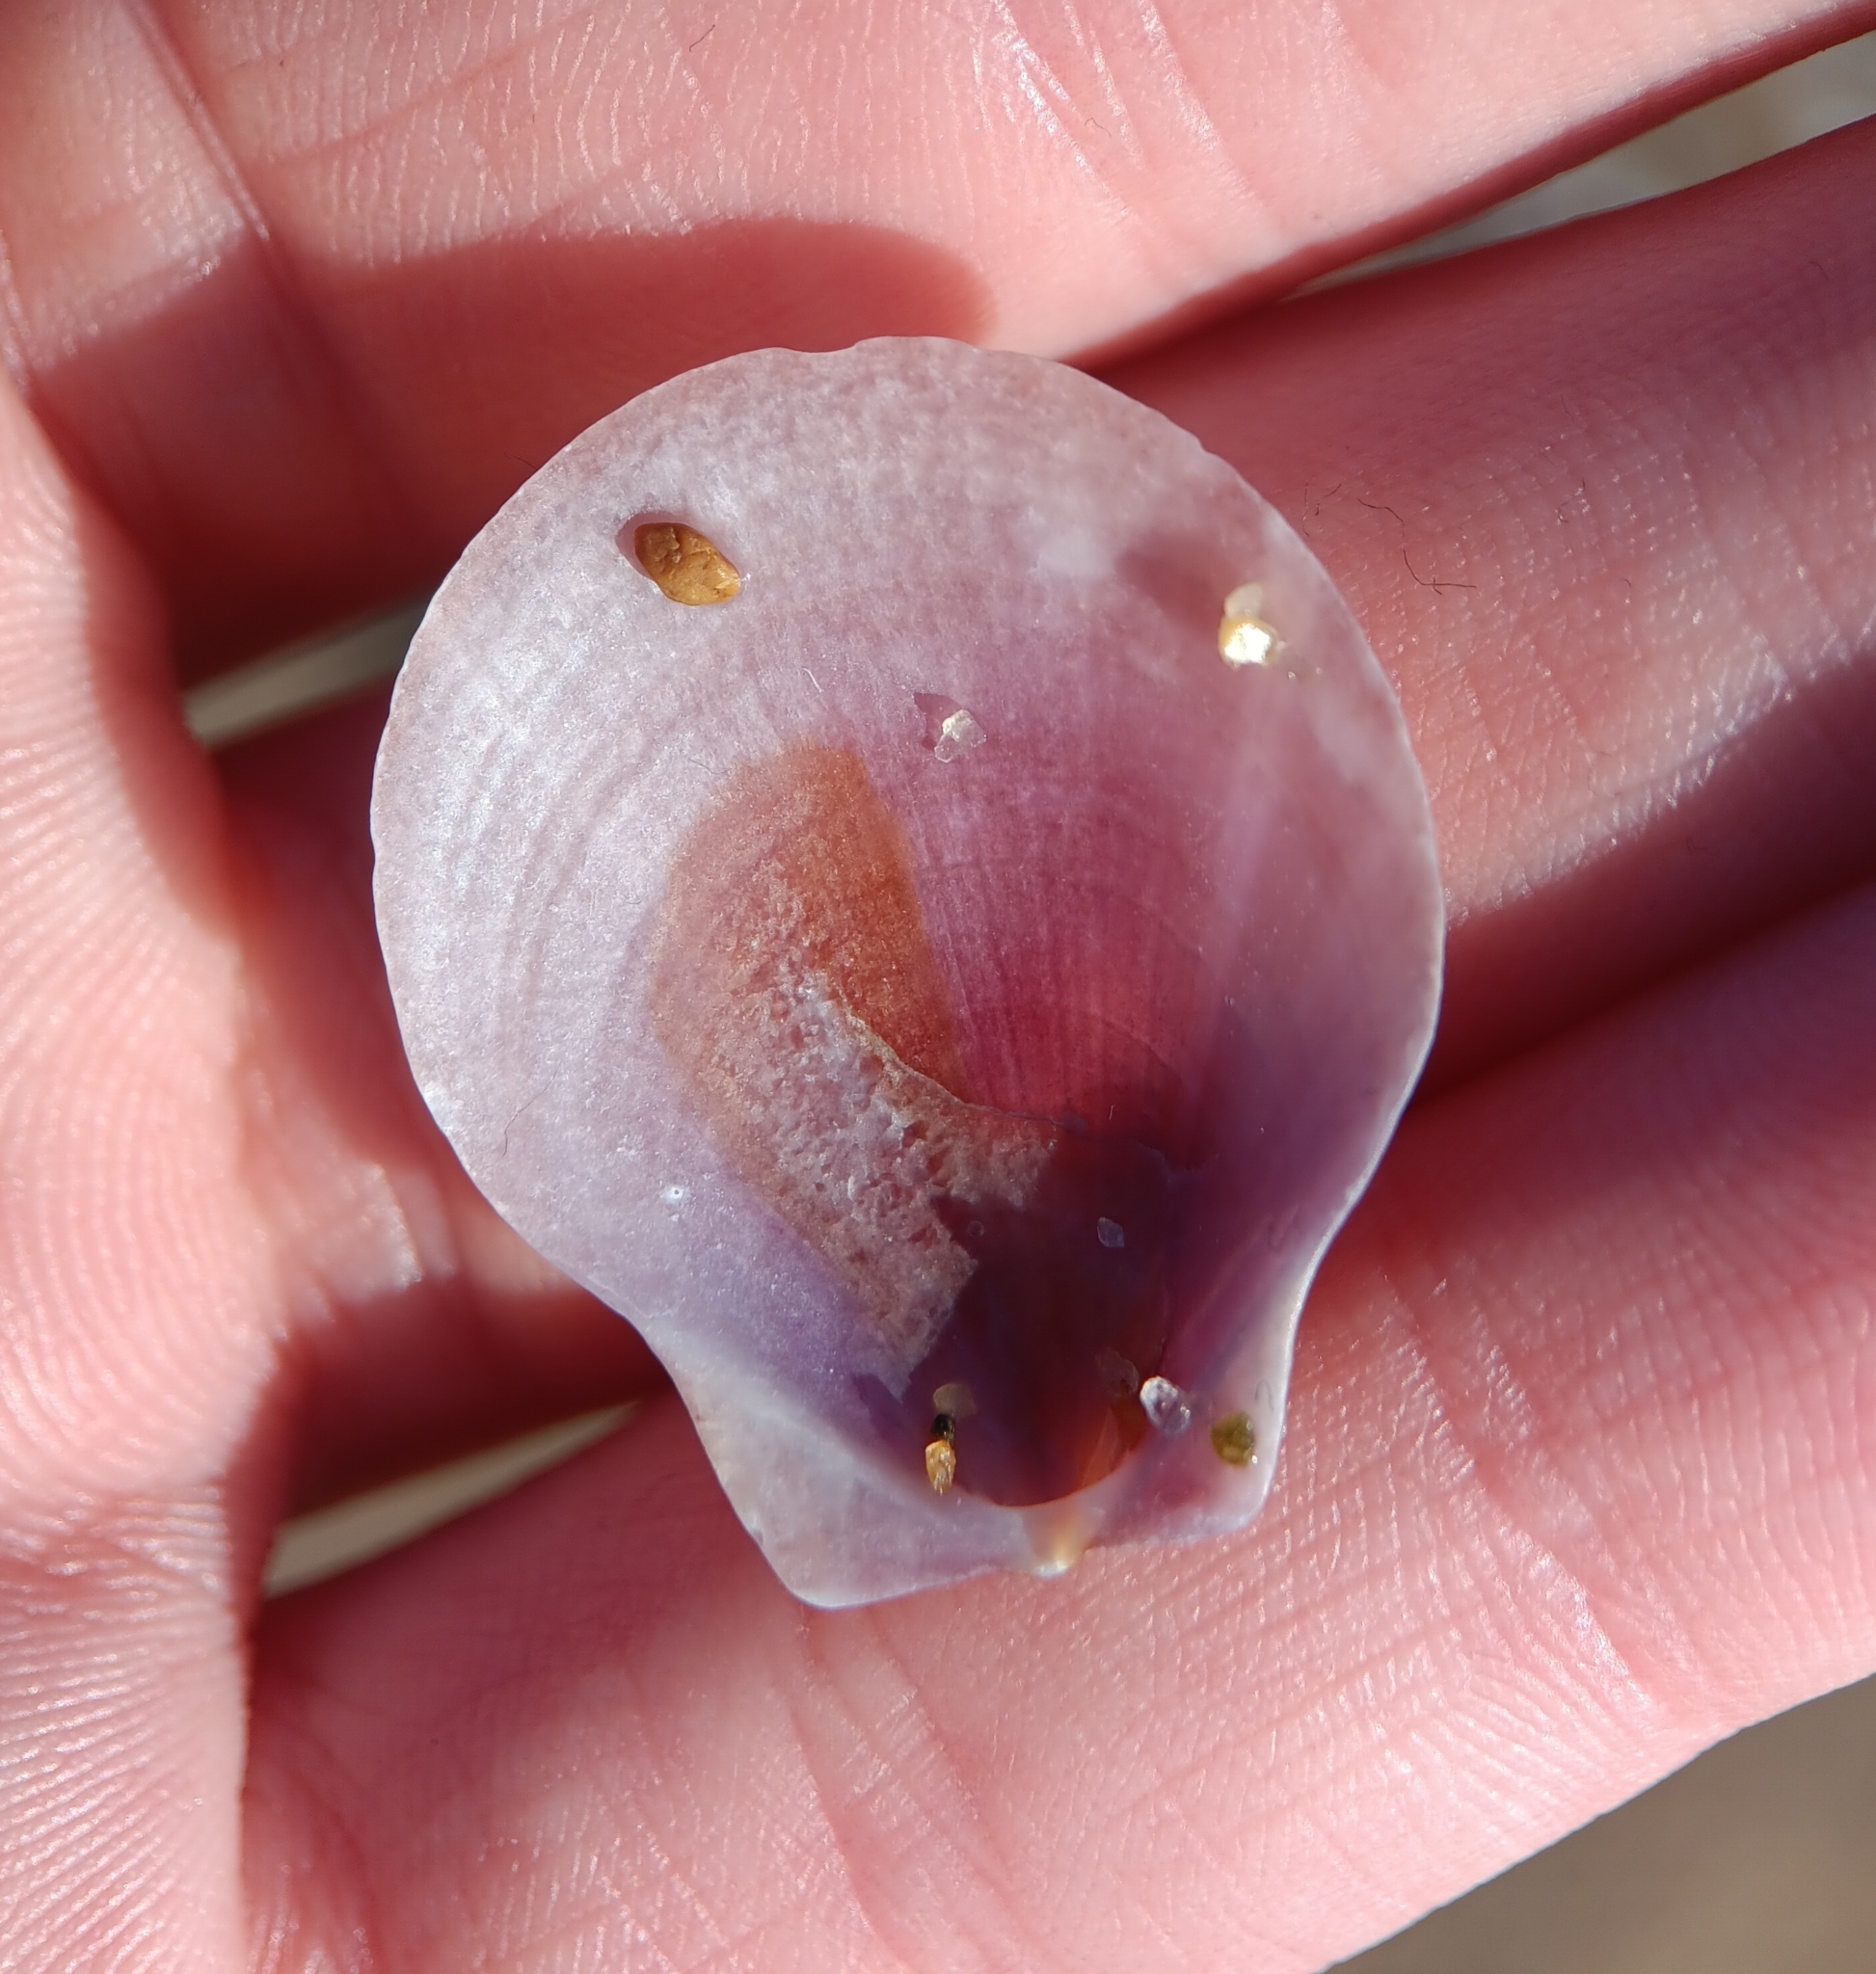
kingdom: Animalia
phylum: Mollusca
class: Bivalvia
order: Pectinida
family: Pectinidae
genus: Placopecten
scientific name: Placopecten magellanicus
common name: American sea scallop
